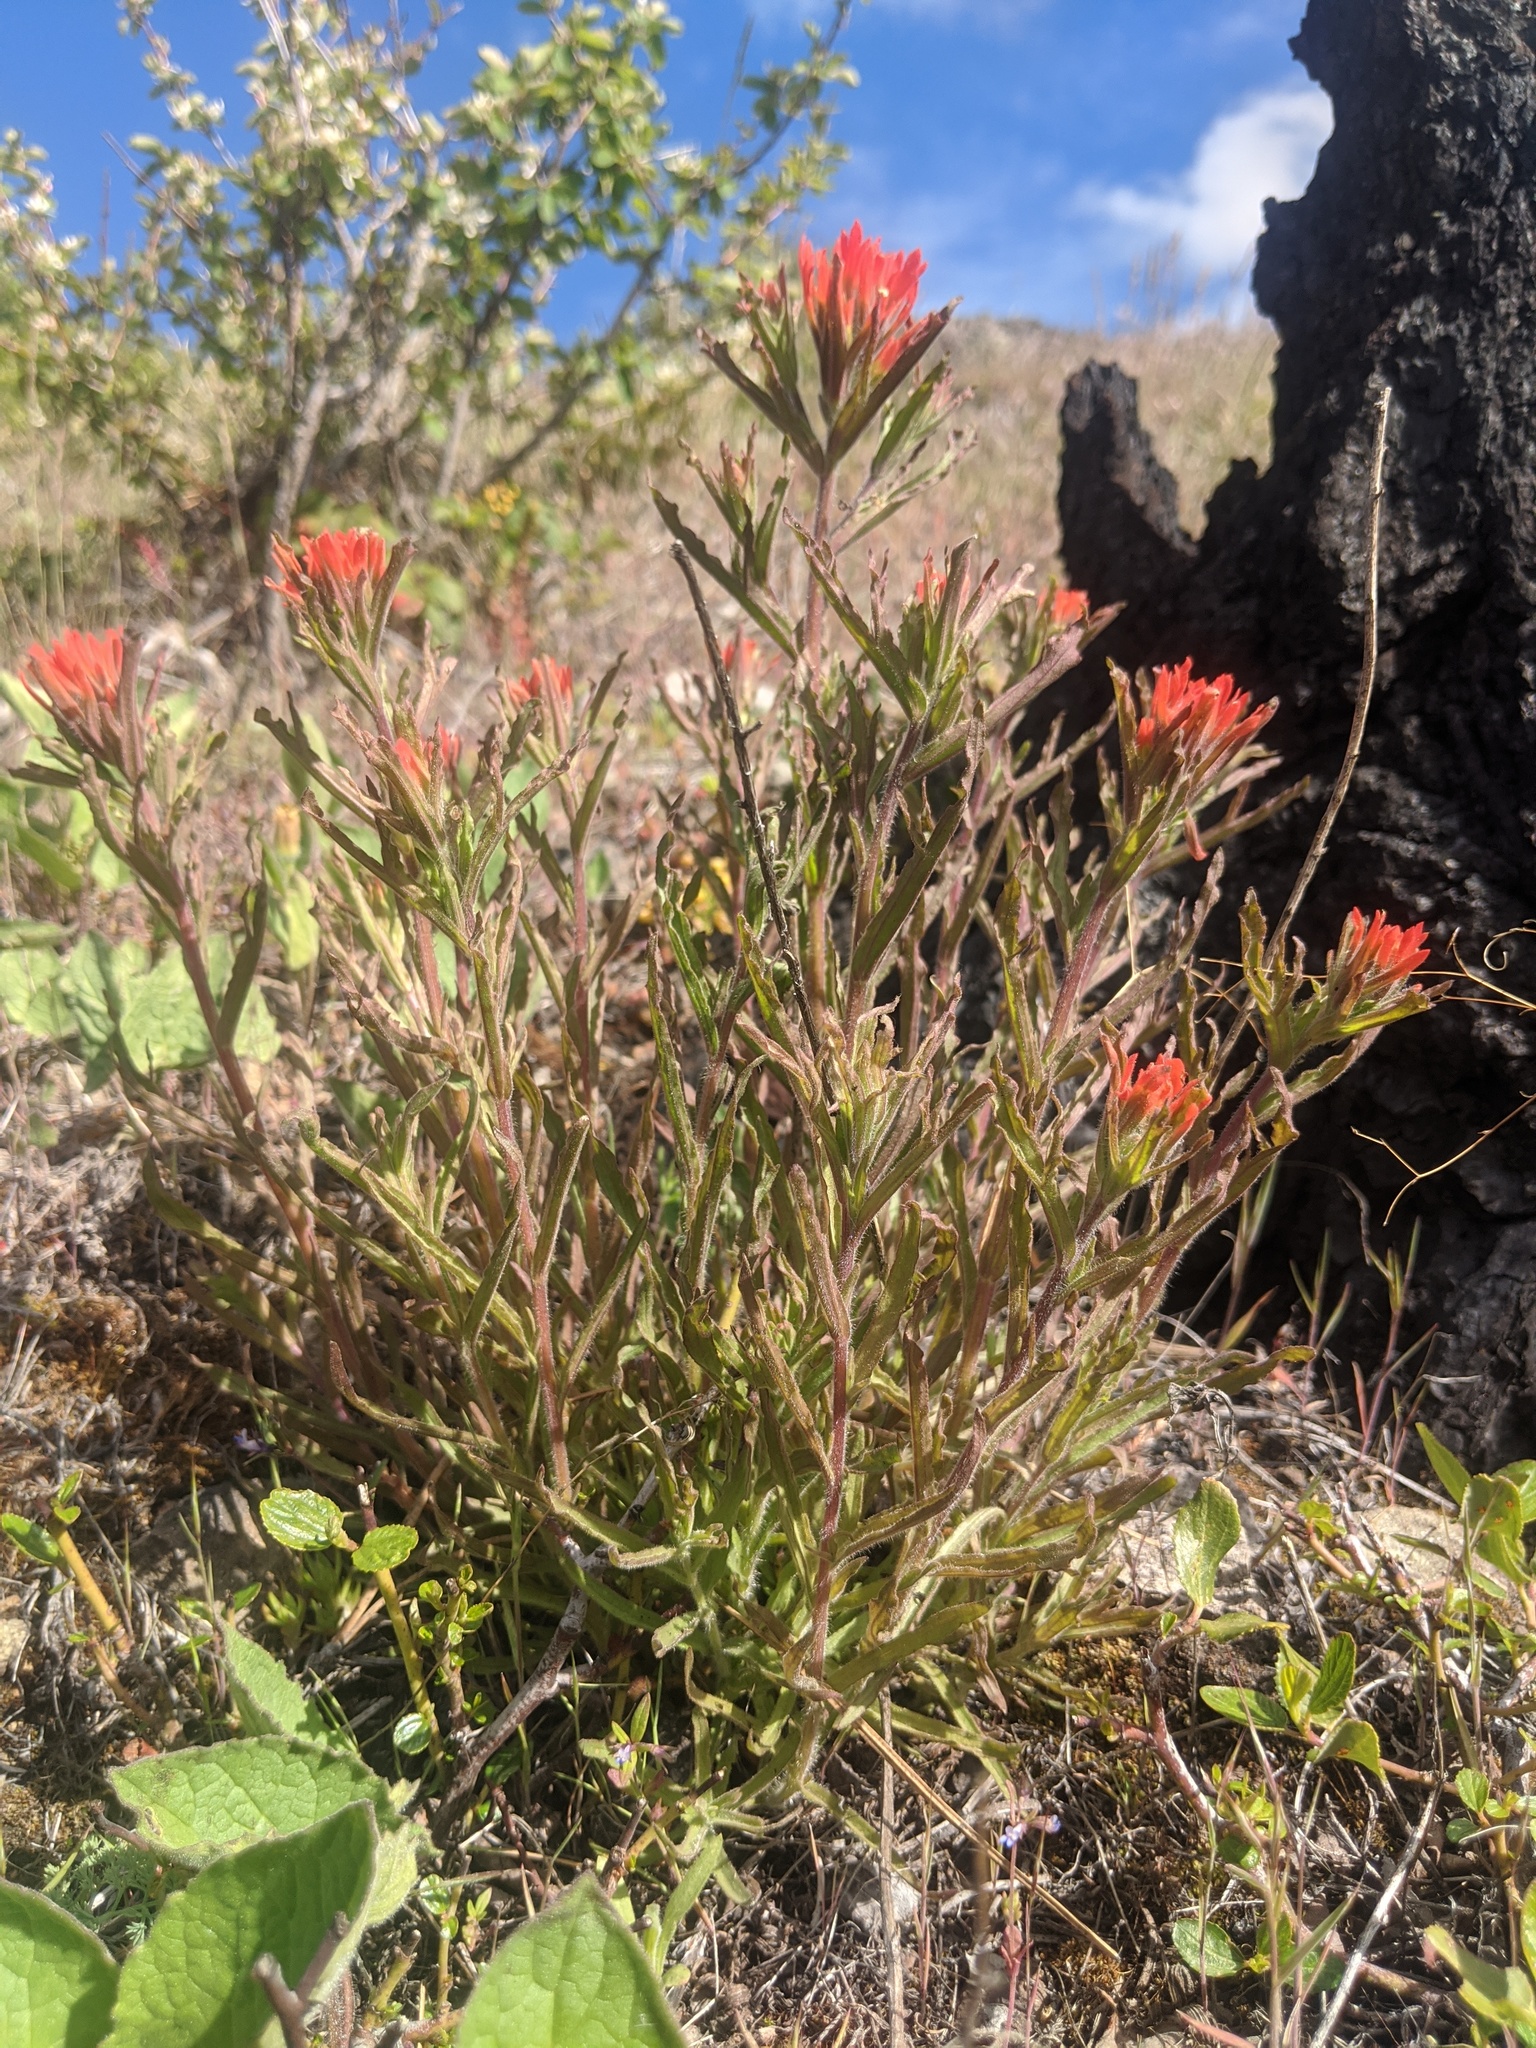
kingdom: Plantae
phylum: Tracheophyta
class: Magnoliopsida
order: Lamiales
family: Orobanchaceae
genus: Castilleja
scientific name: Castilleja applegatei
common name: Wavy-leaf paintbrush
